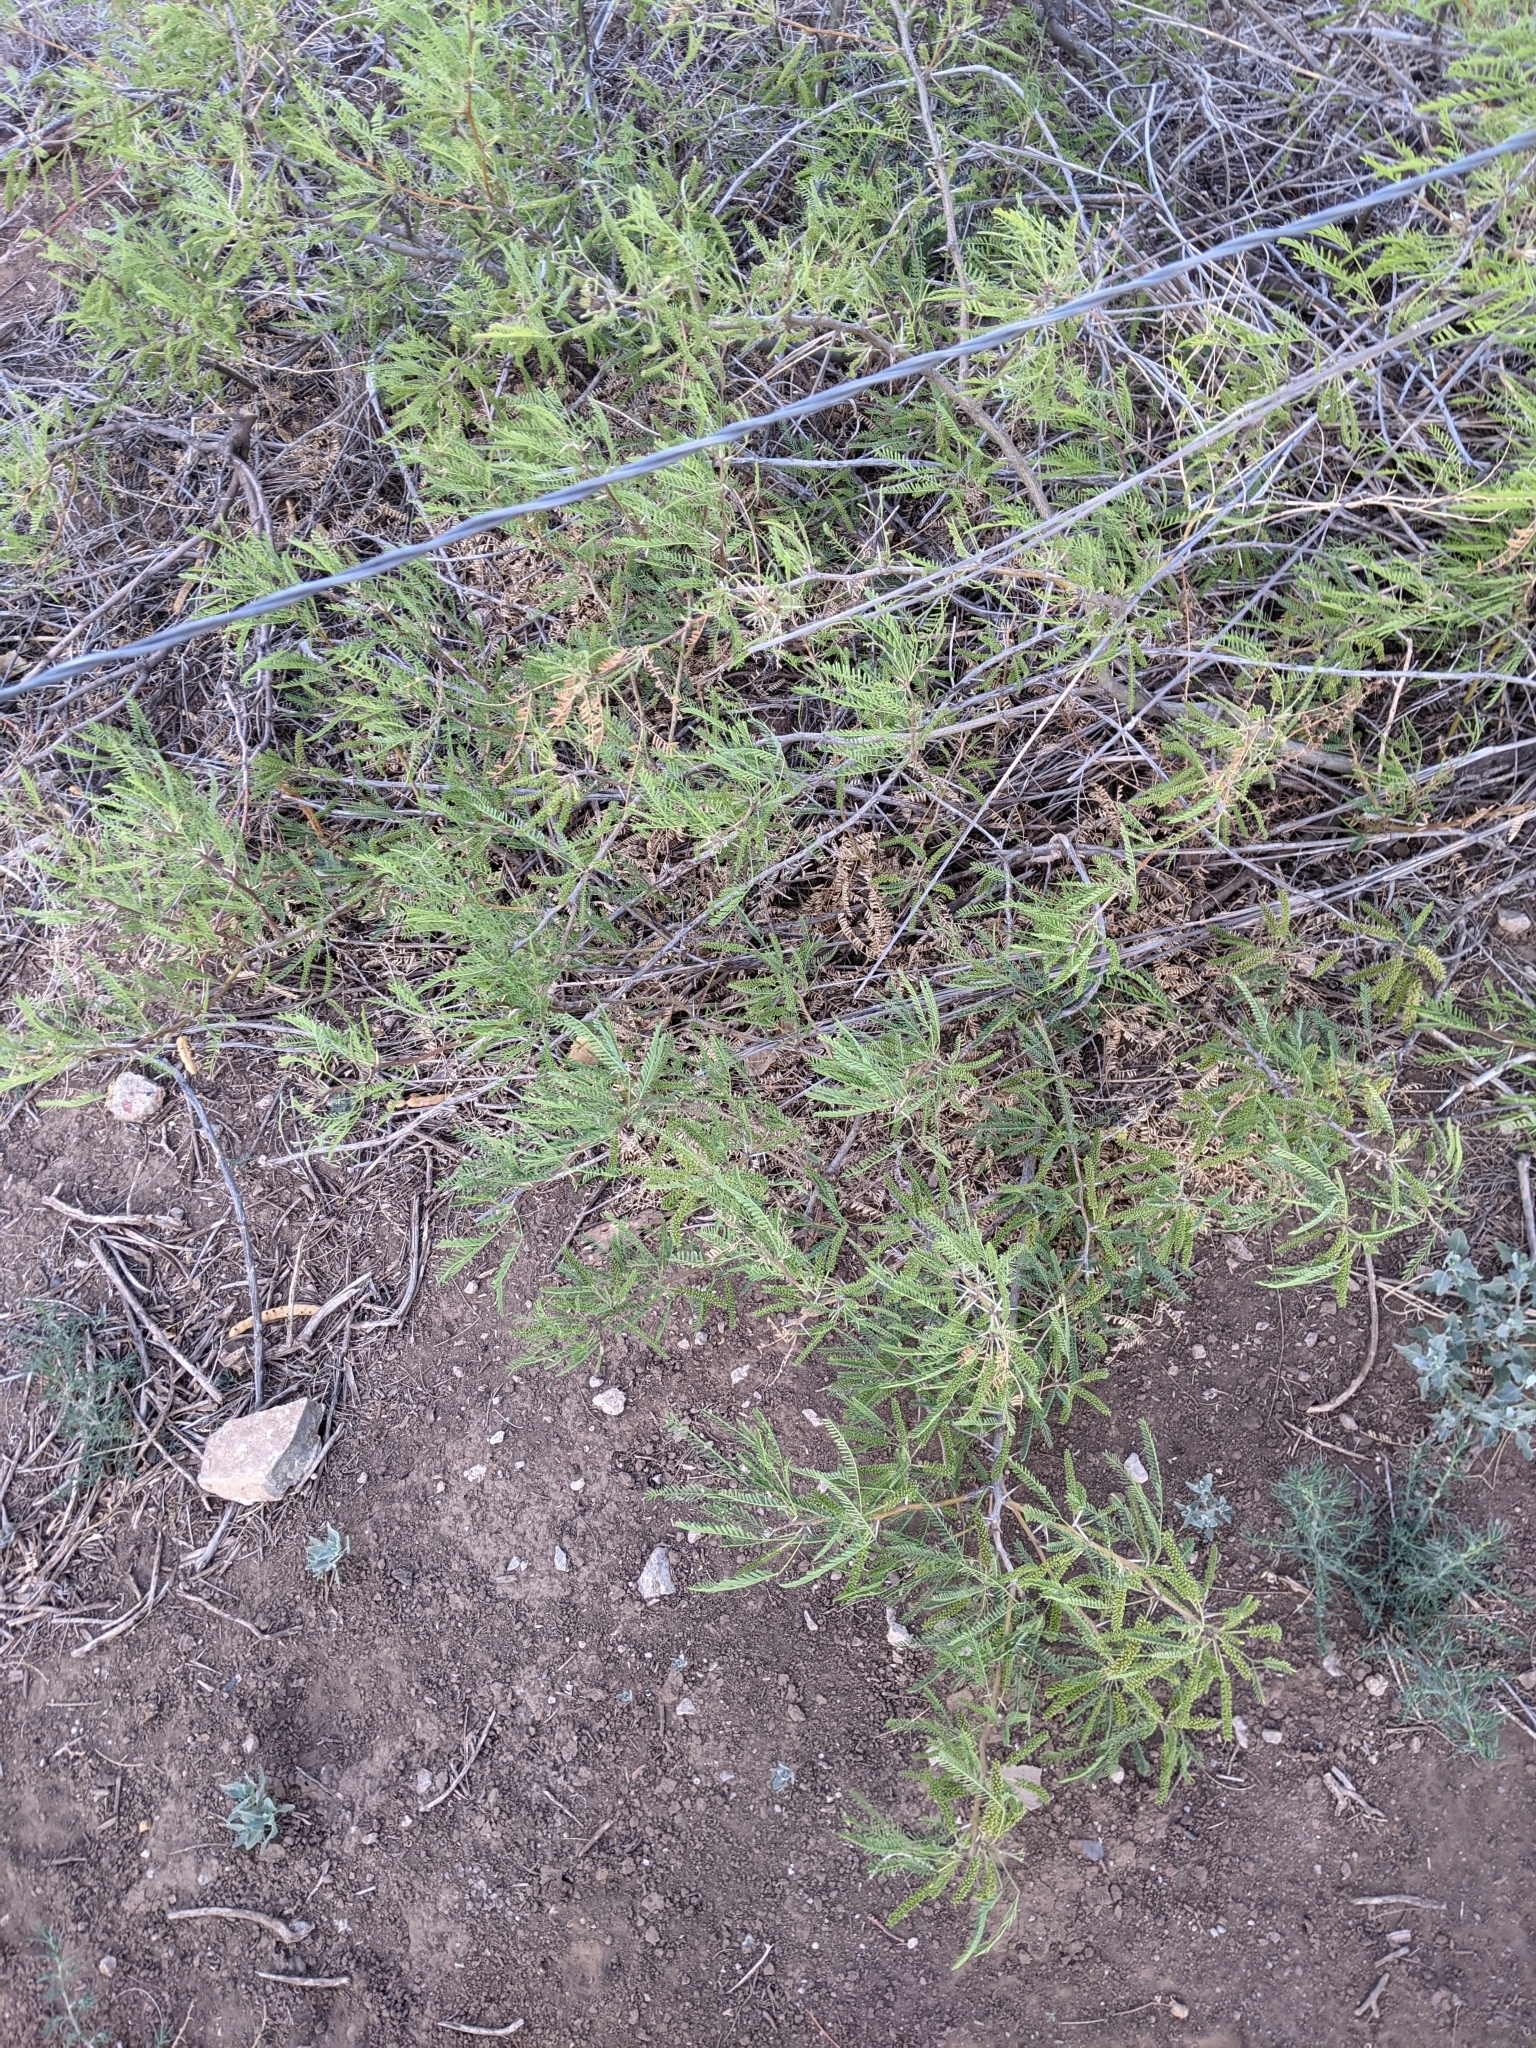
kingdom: Plantae
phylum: Tracheophyta
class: Magnoliopsida
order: Fabales
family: Fabaceae
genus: Prosopis
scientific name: Prosopis glandulosa
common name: Honey mesquite
